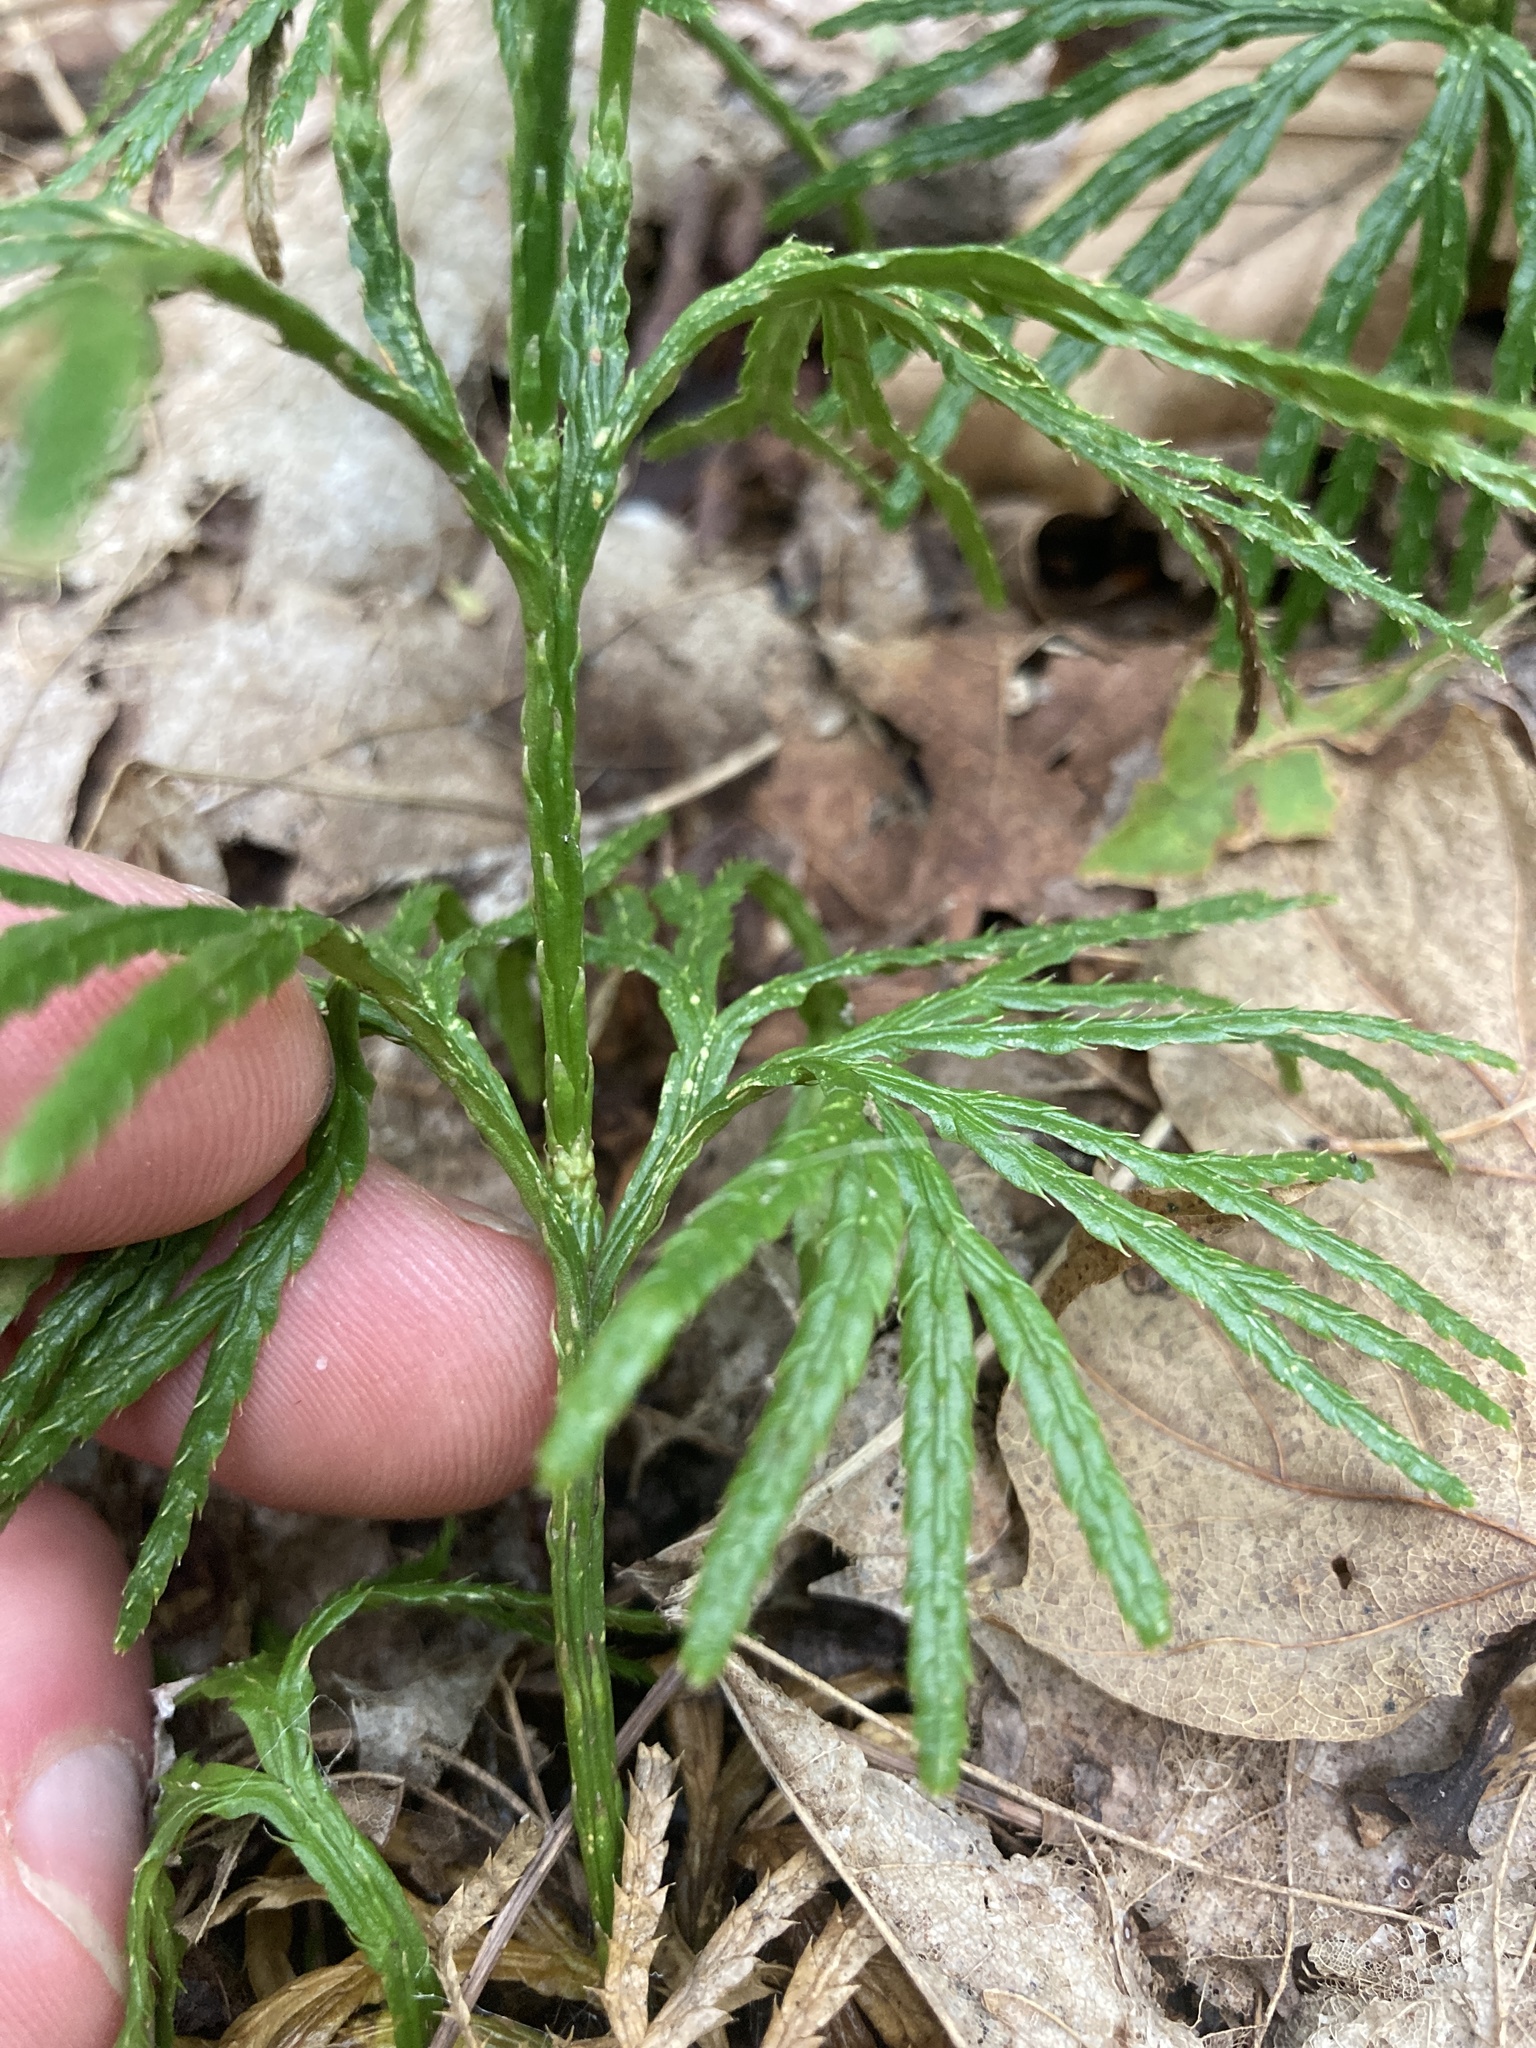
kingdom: Plantae
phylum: Tracheophyta
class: Lycopodiopsida
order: Lycopodiales
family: Lycopodiaceae
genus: Diphasiastrum
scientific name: Diphasiastrum digitatum
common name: Southern running-pine
